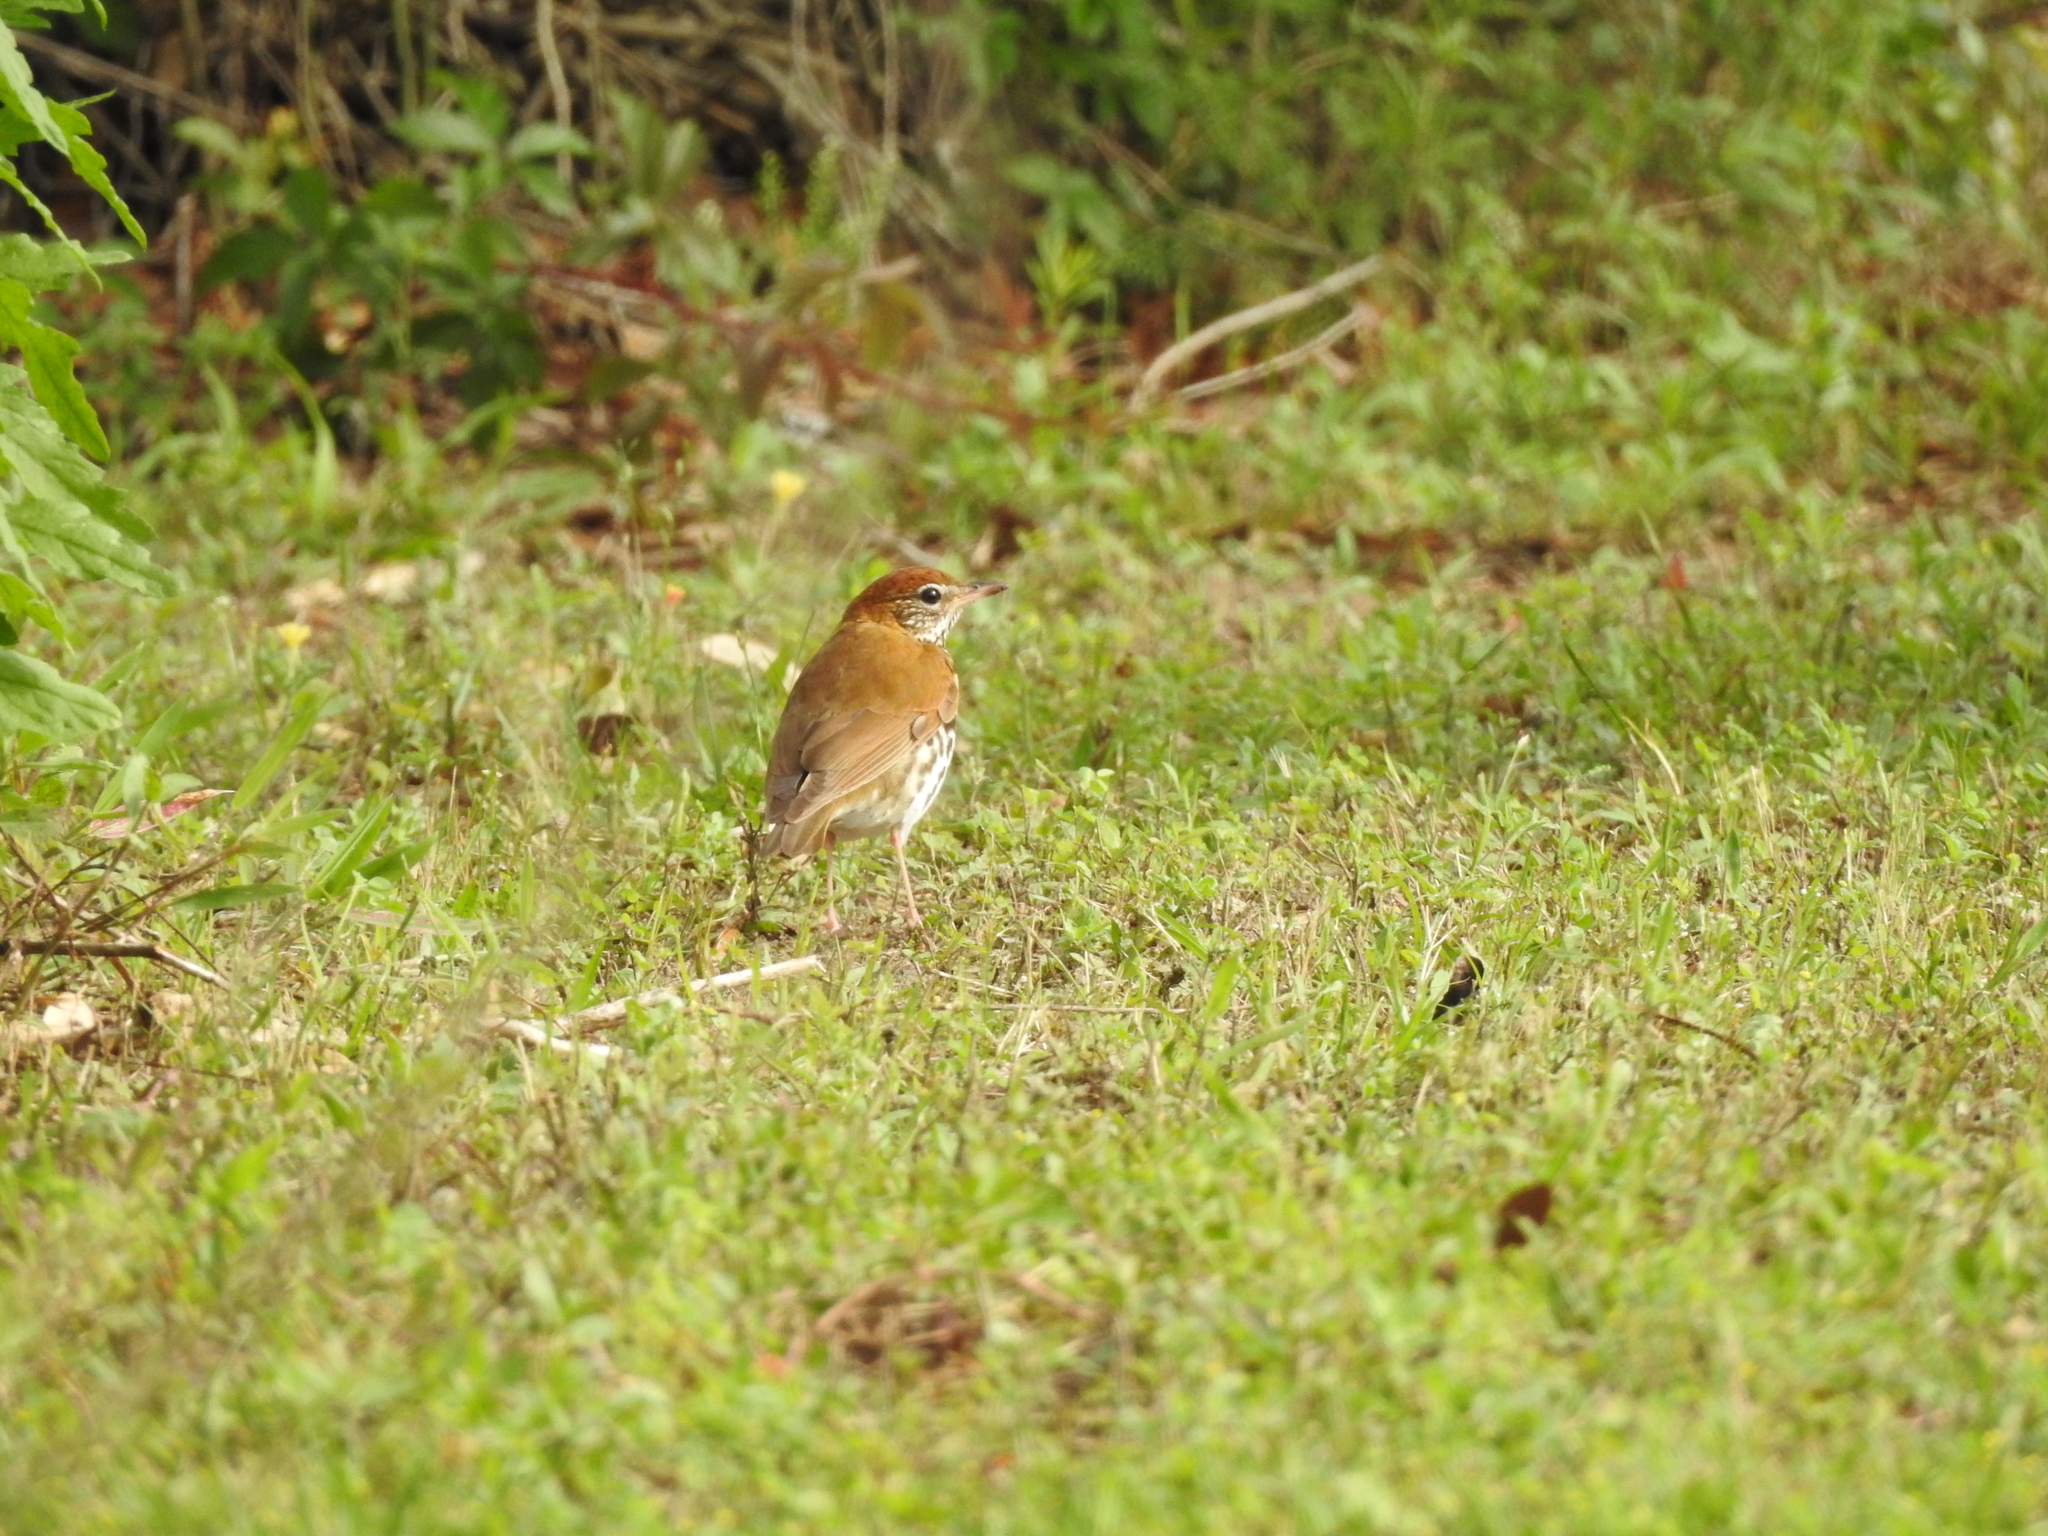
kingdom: Animalia
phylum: Chordata
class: Aves
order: Passeriformes
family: Turdidae
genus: Hylocichla
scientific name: Hylocichla mustelina
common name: Wood thrush
